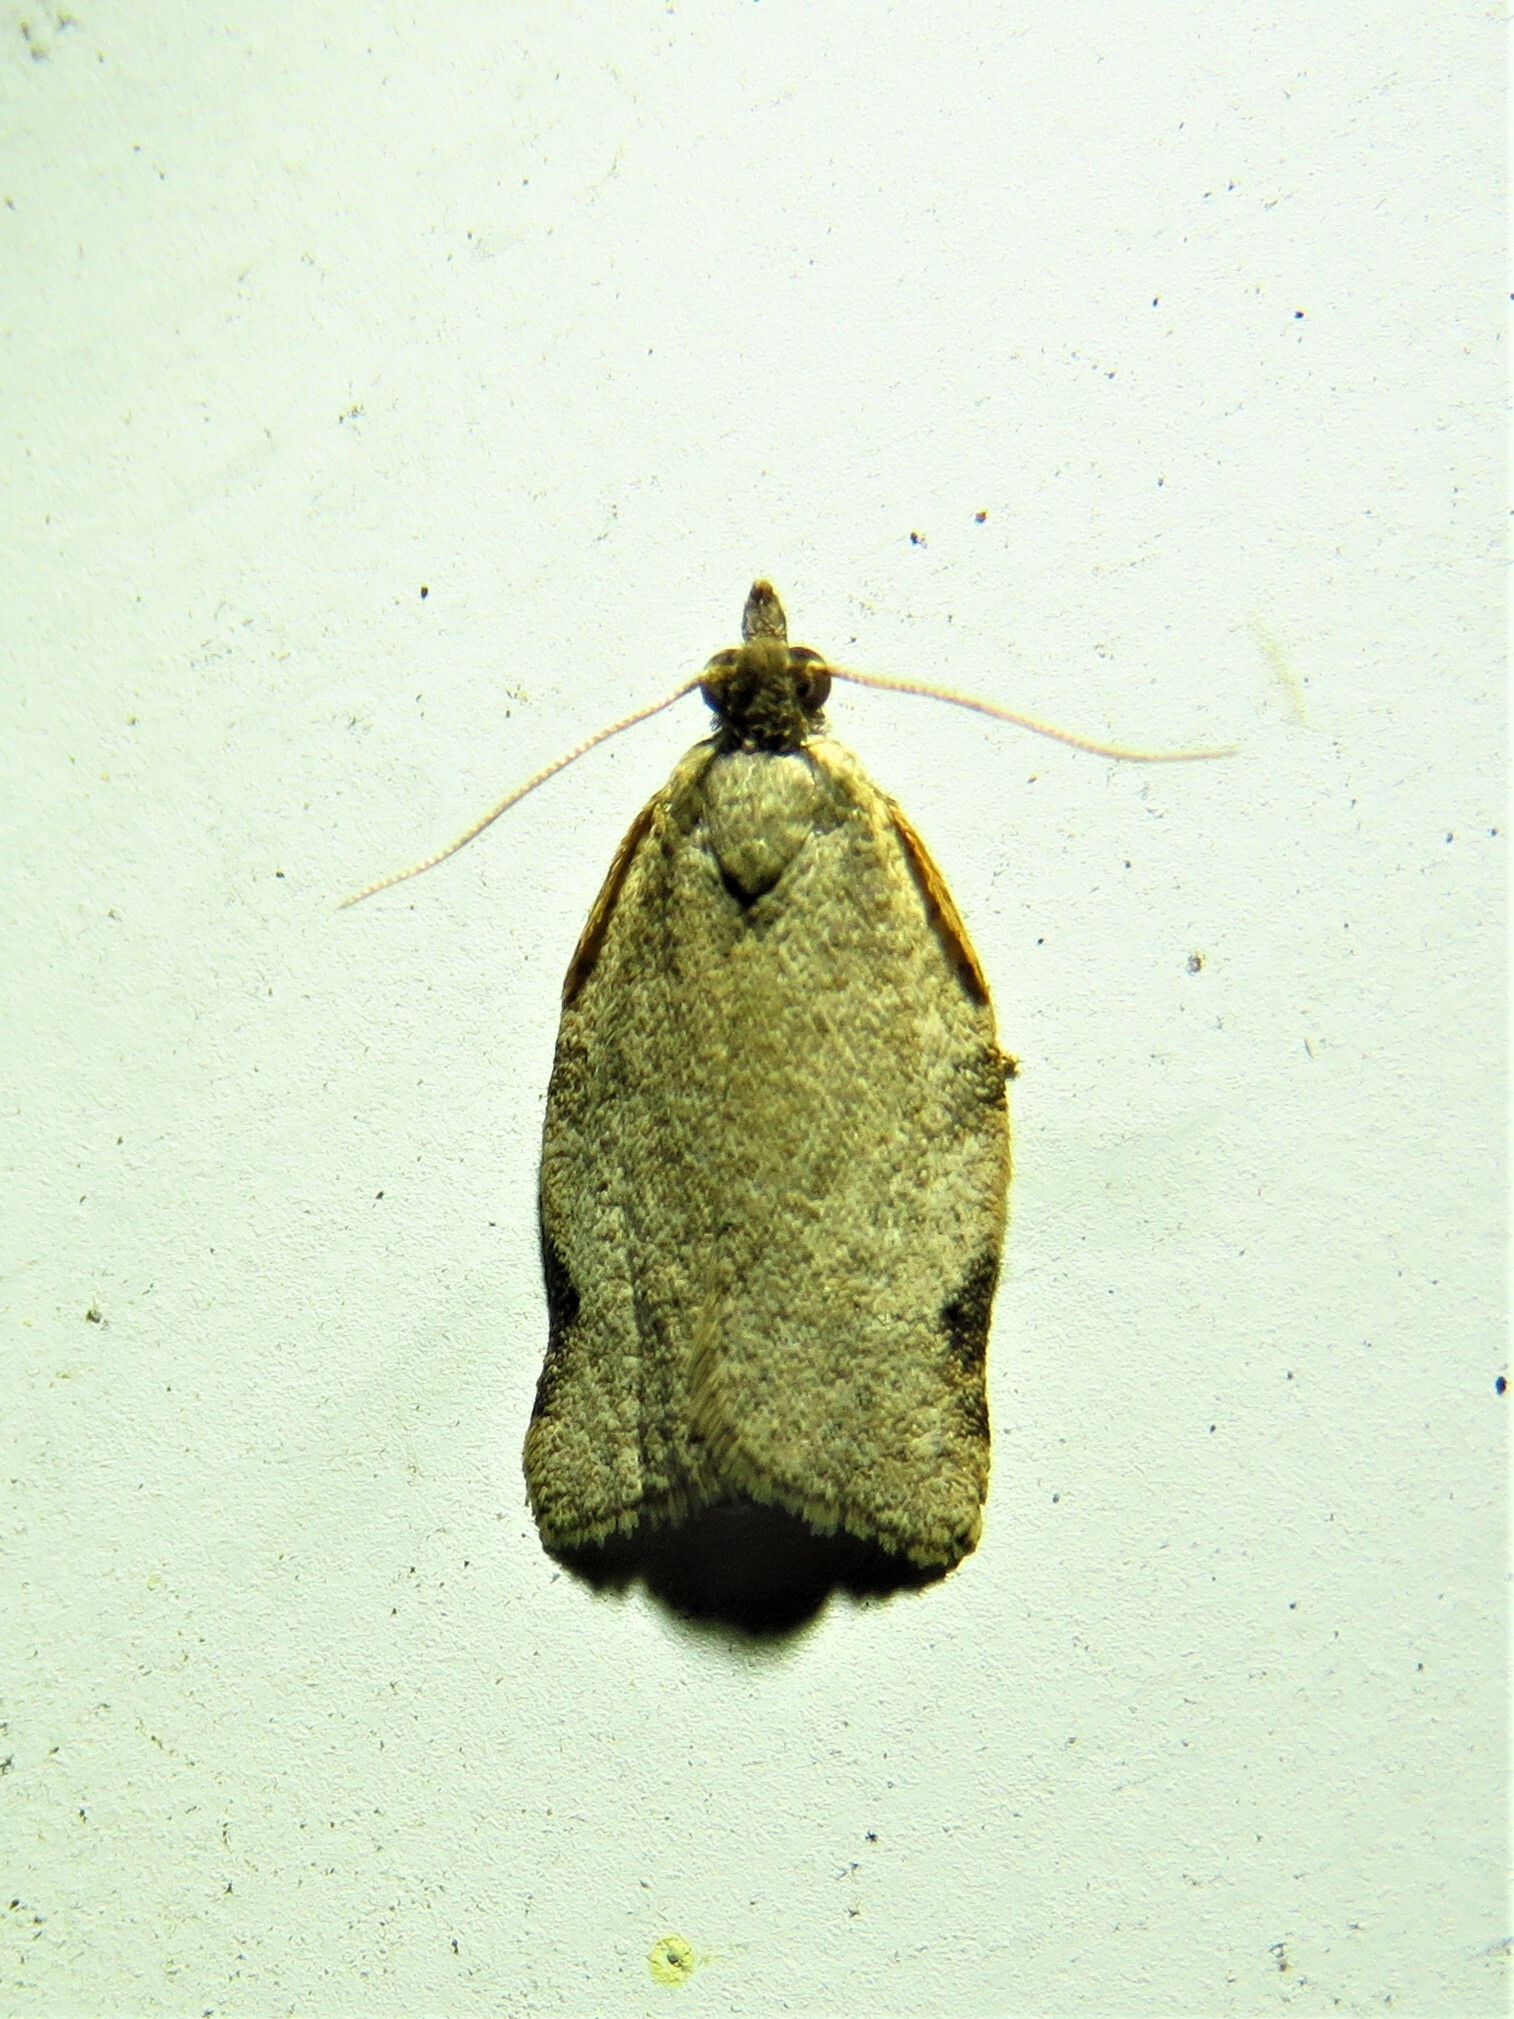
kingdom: Animalia
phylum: Arthropoda
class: Insecta
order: Lepidoptera
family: Tortricidae
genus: Clepsis
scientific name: Clepsis virescana
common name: Greenish apple moth
